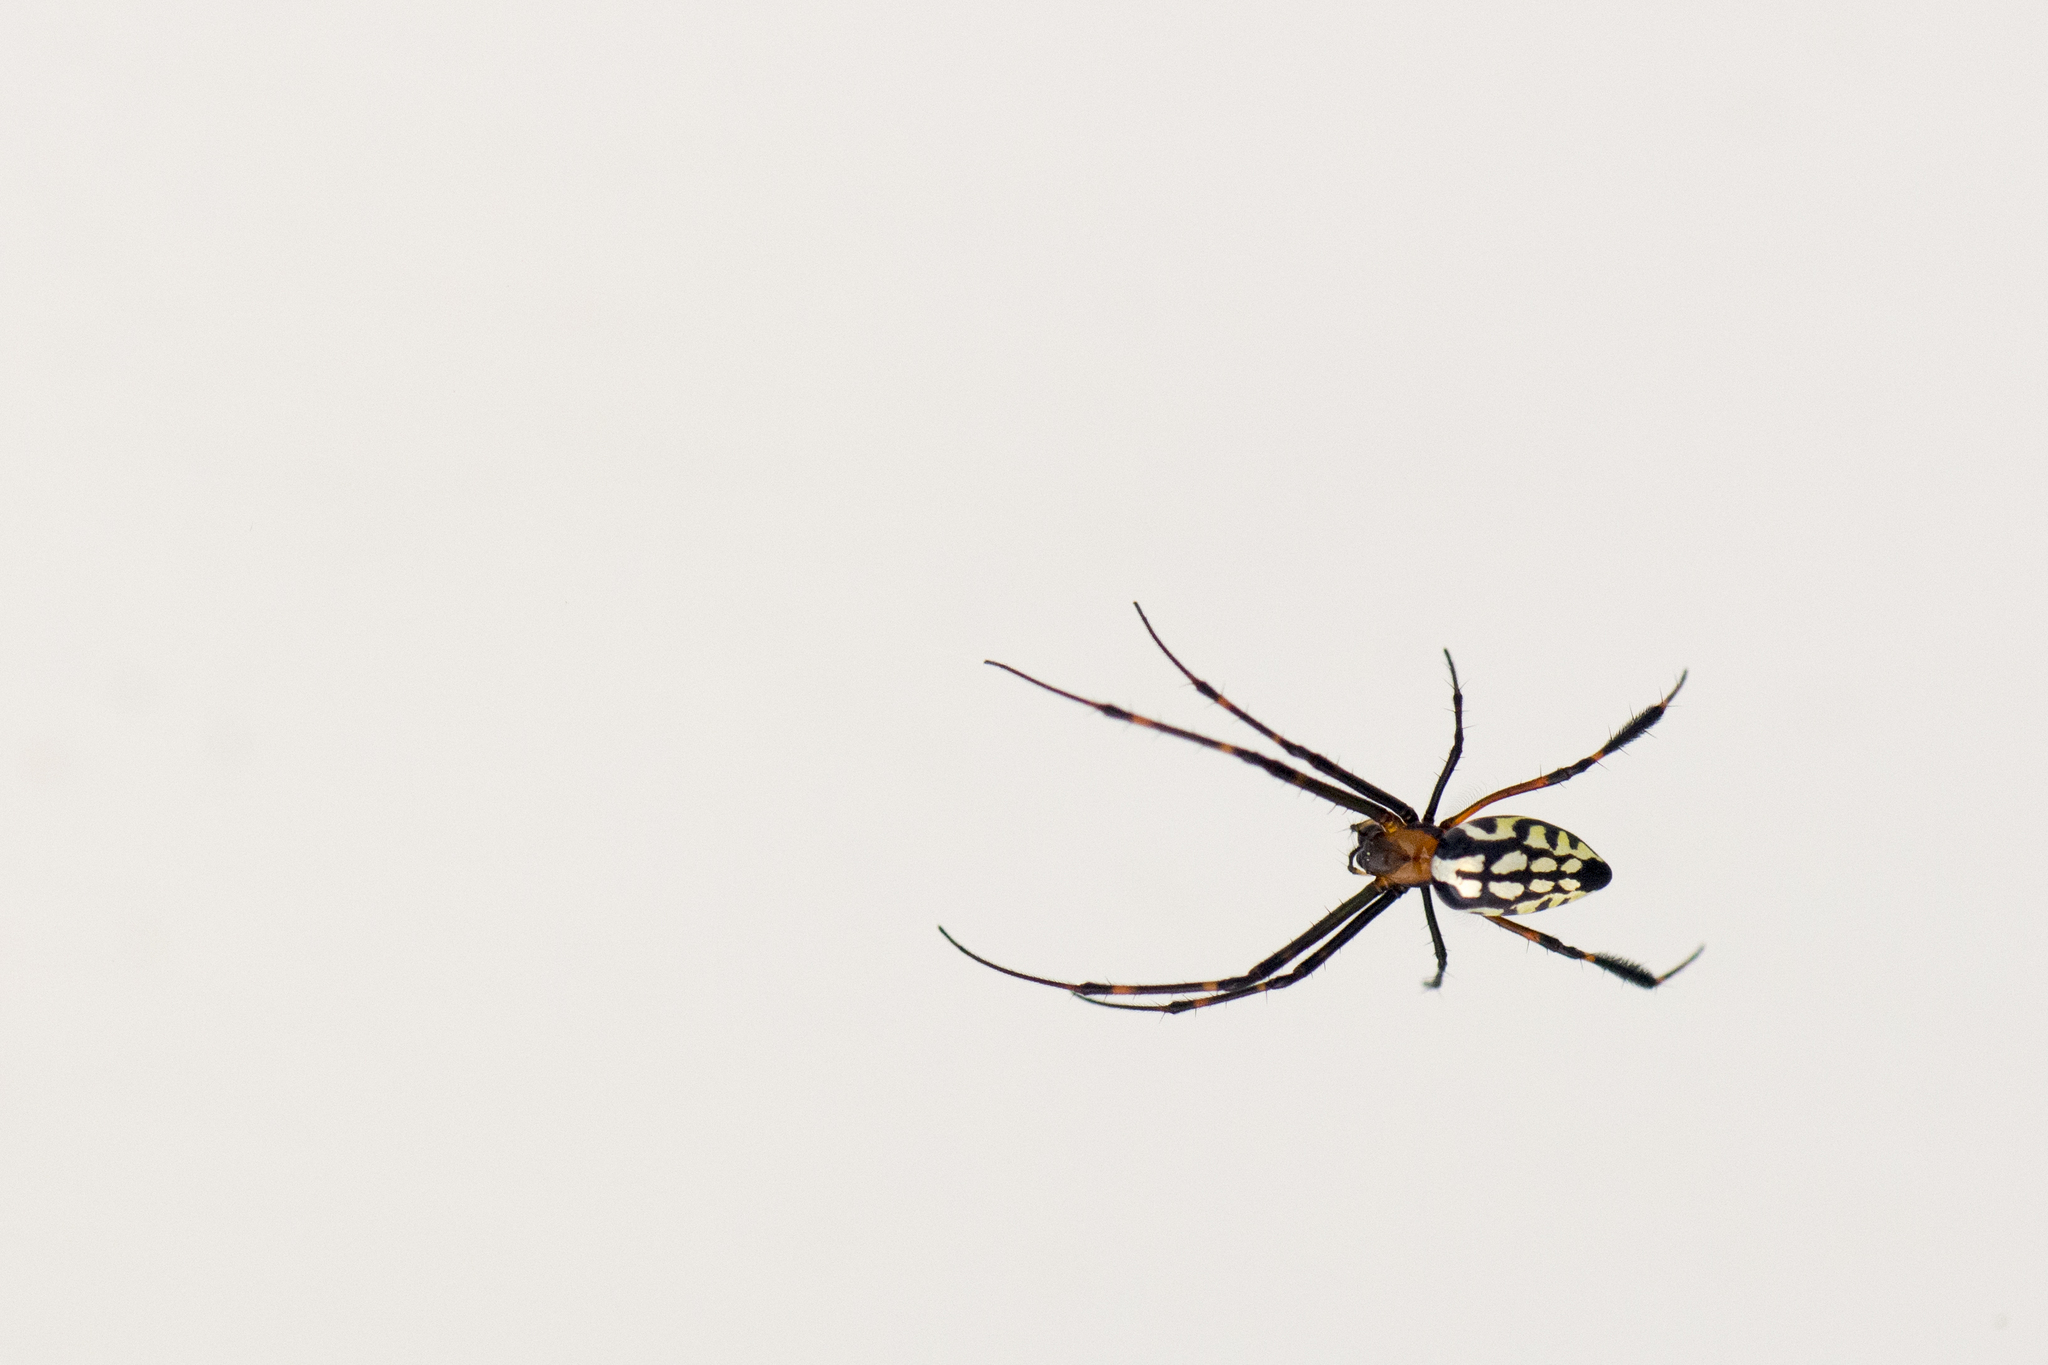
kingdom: Animalia
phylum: Arthropoda
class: Arachnida
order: Araneae
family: Tetragnathidae
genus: Leucauge
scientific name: Leucauge tessellata
